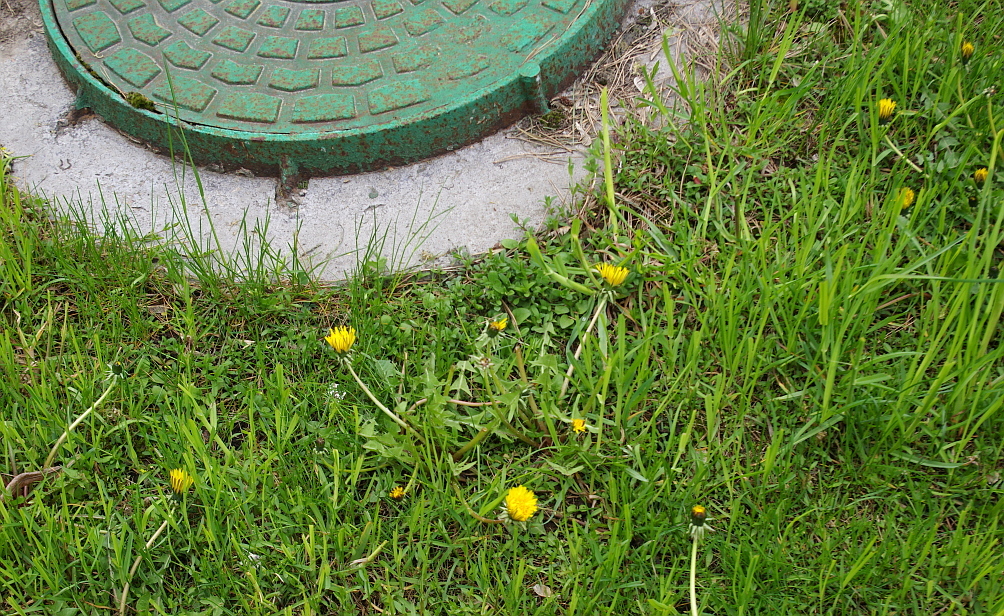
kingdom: Plantae
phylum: Tracheophyta
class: Magnoliopsida
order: Asterales
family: Asteraceae
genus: Taraxacum
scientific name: Taraxacum officinale
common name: Common dandelion
